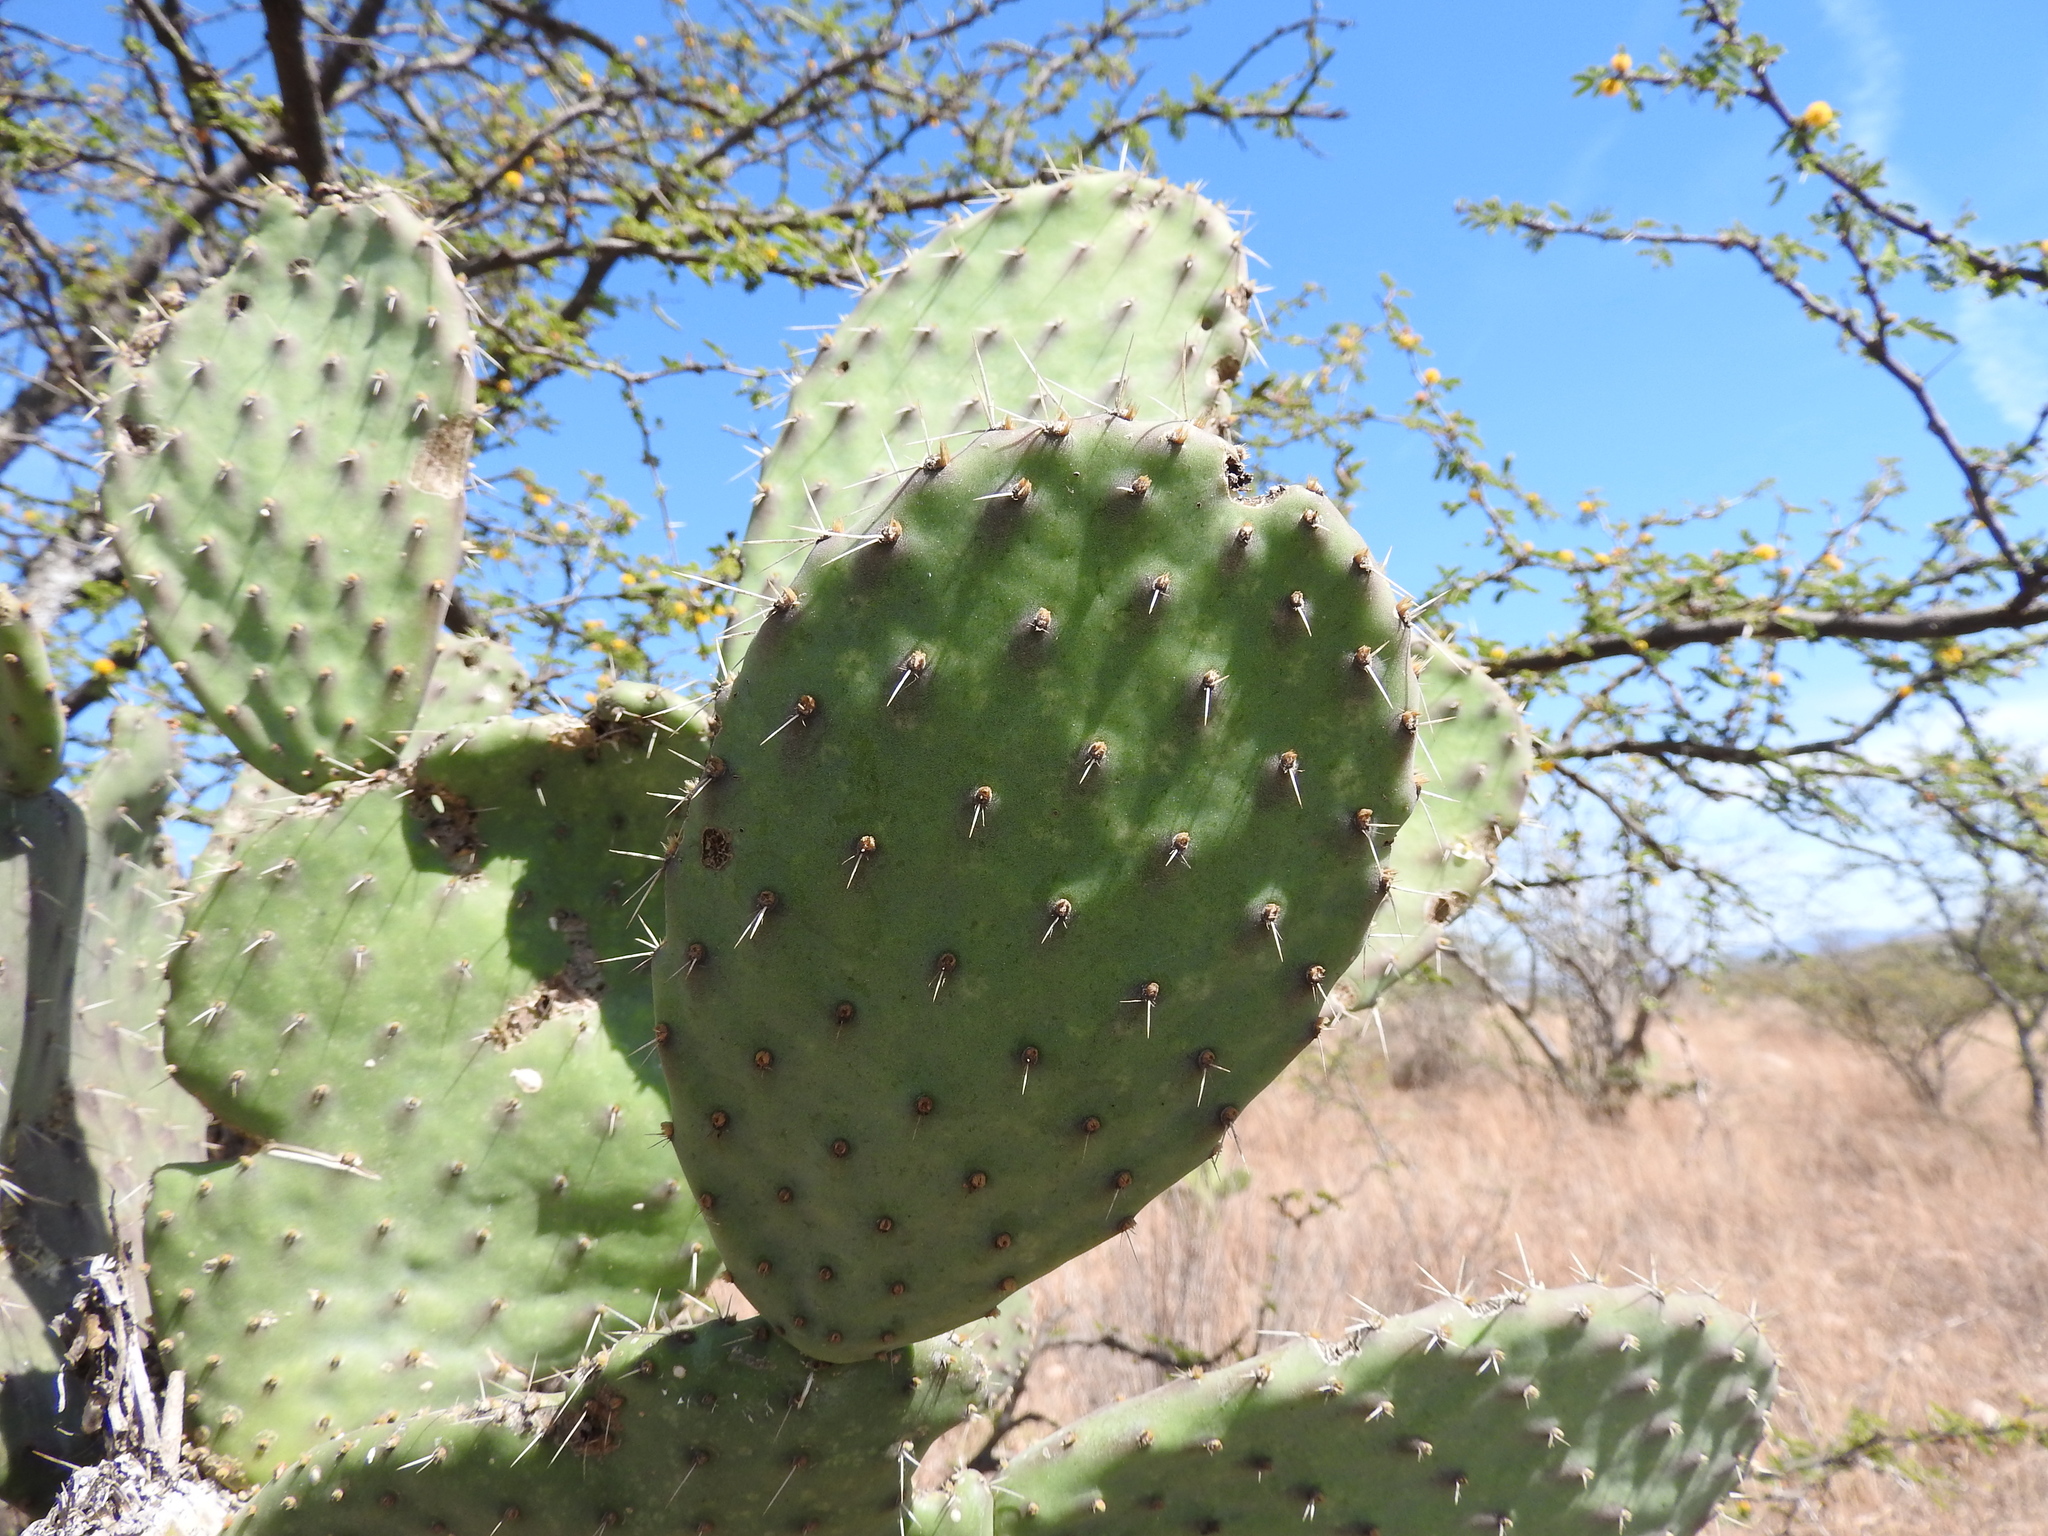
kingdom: Plantae
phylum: Tracheophyta
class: Magnoliopsida
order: Caryophyllales
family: Cactaceae
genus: Opuntia
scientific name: Opuntia tomentosa
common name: Woollyjoint pricklypear
